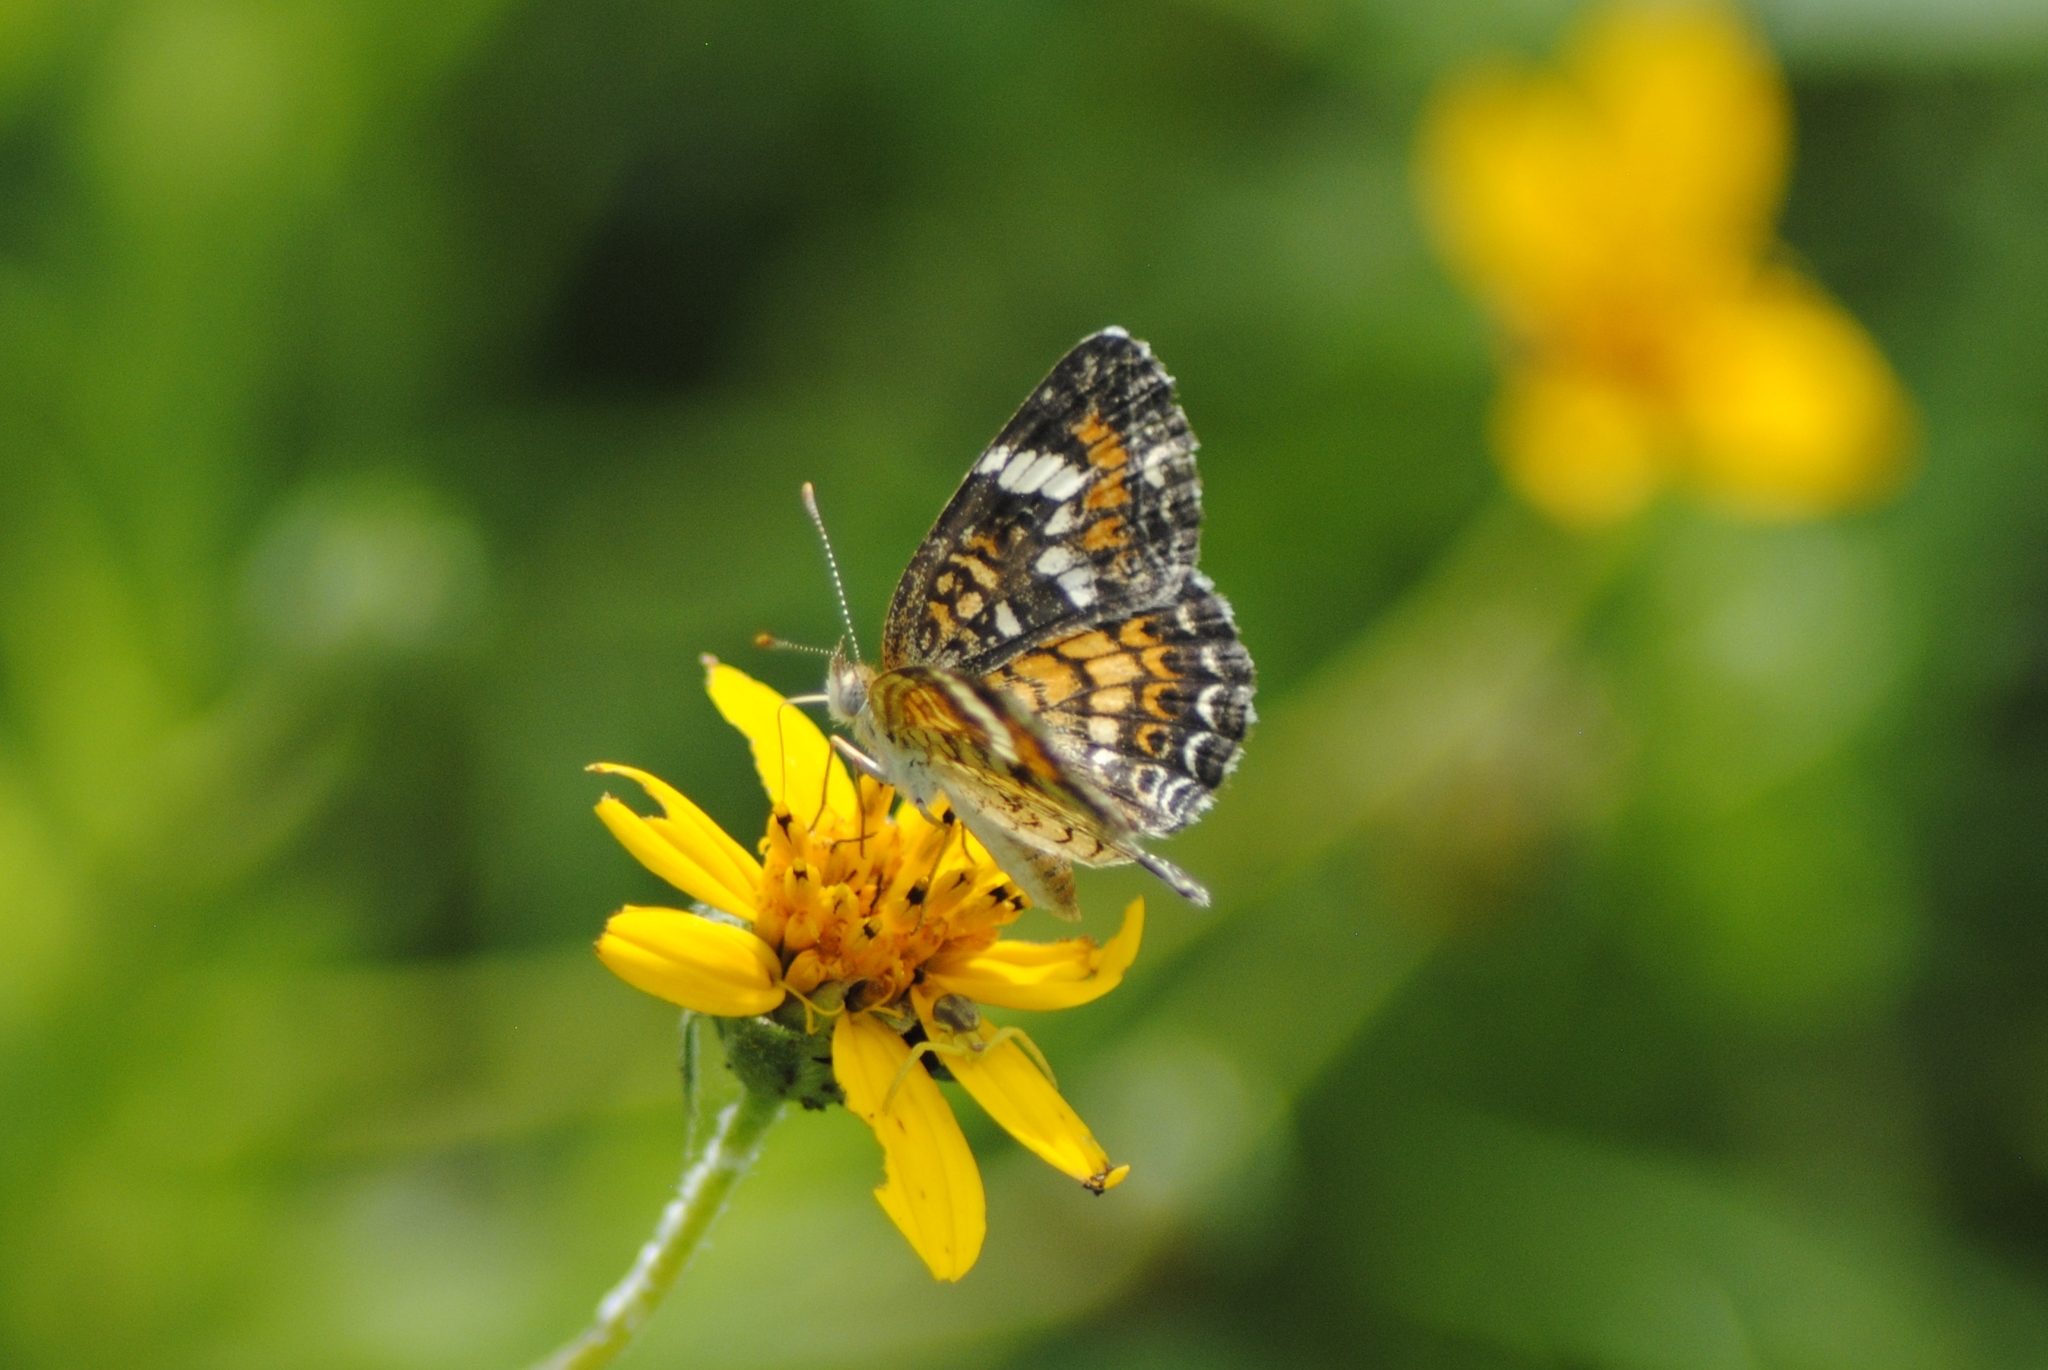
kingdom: Animalia
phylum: Arthropoda
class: Insecta
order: Lepidoptera
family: Nymphalidae
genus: Phyciodes
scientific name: Phyciodes phaon
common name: Phaon crescent
